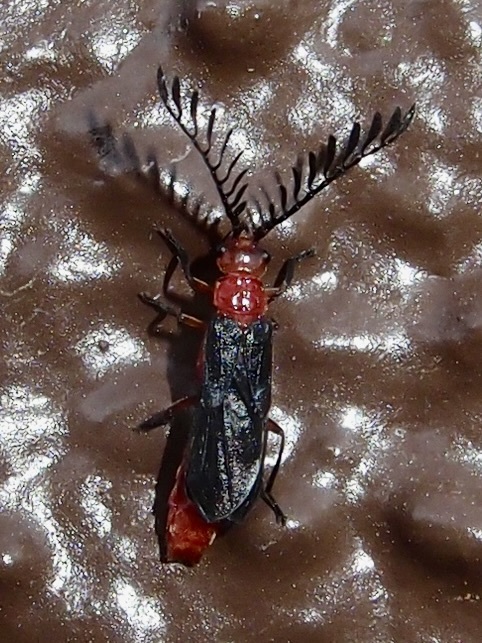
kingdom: Animalia
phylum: Arthropoda
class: Insecta
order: Coleoptera
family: Cantharidae
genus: Tytthonyx
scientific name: Tytthonyx bicolor
